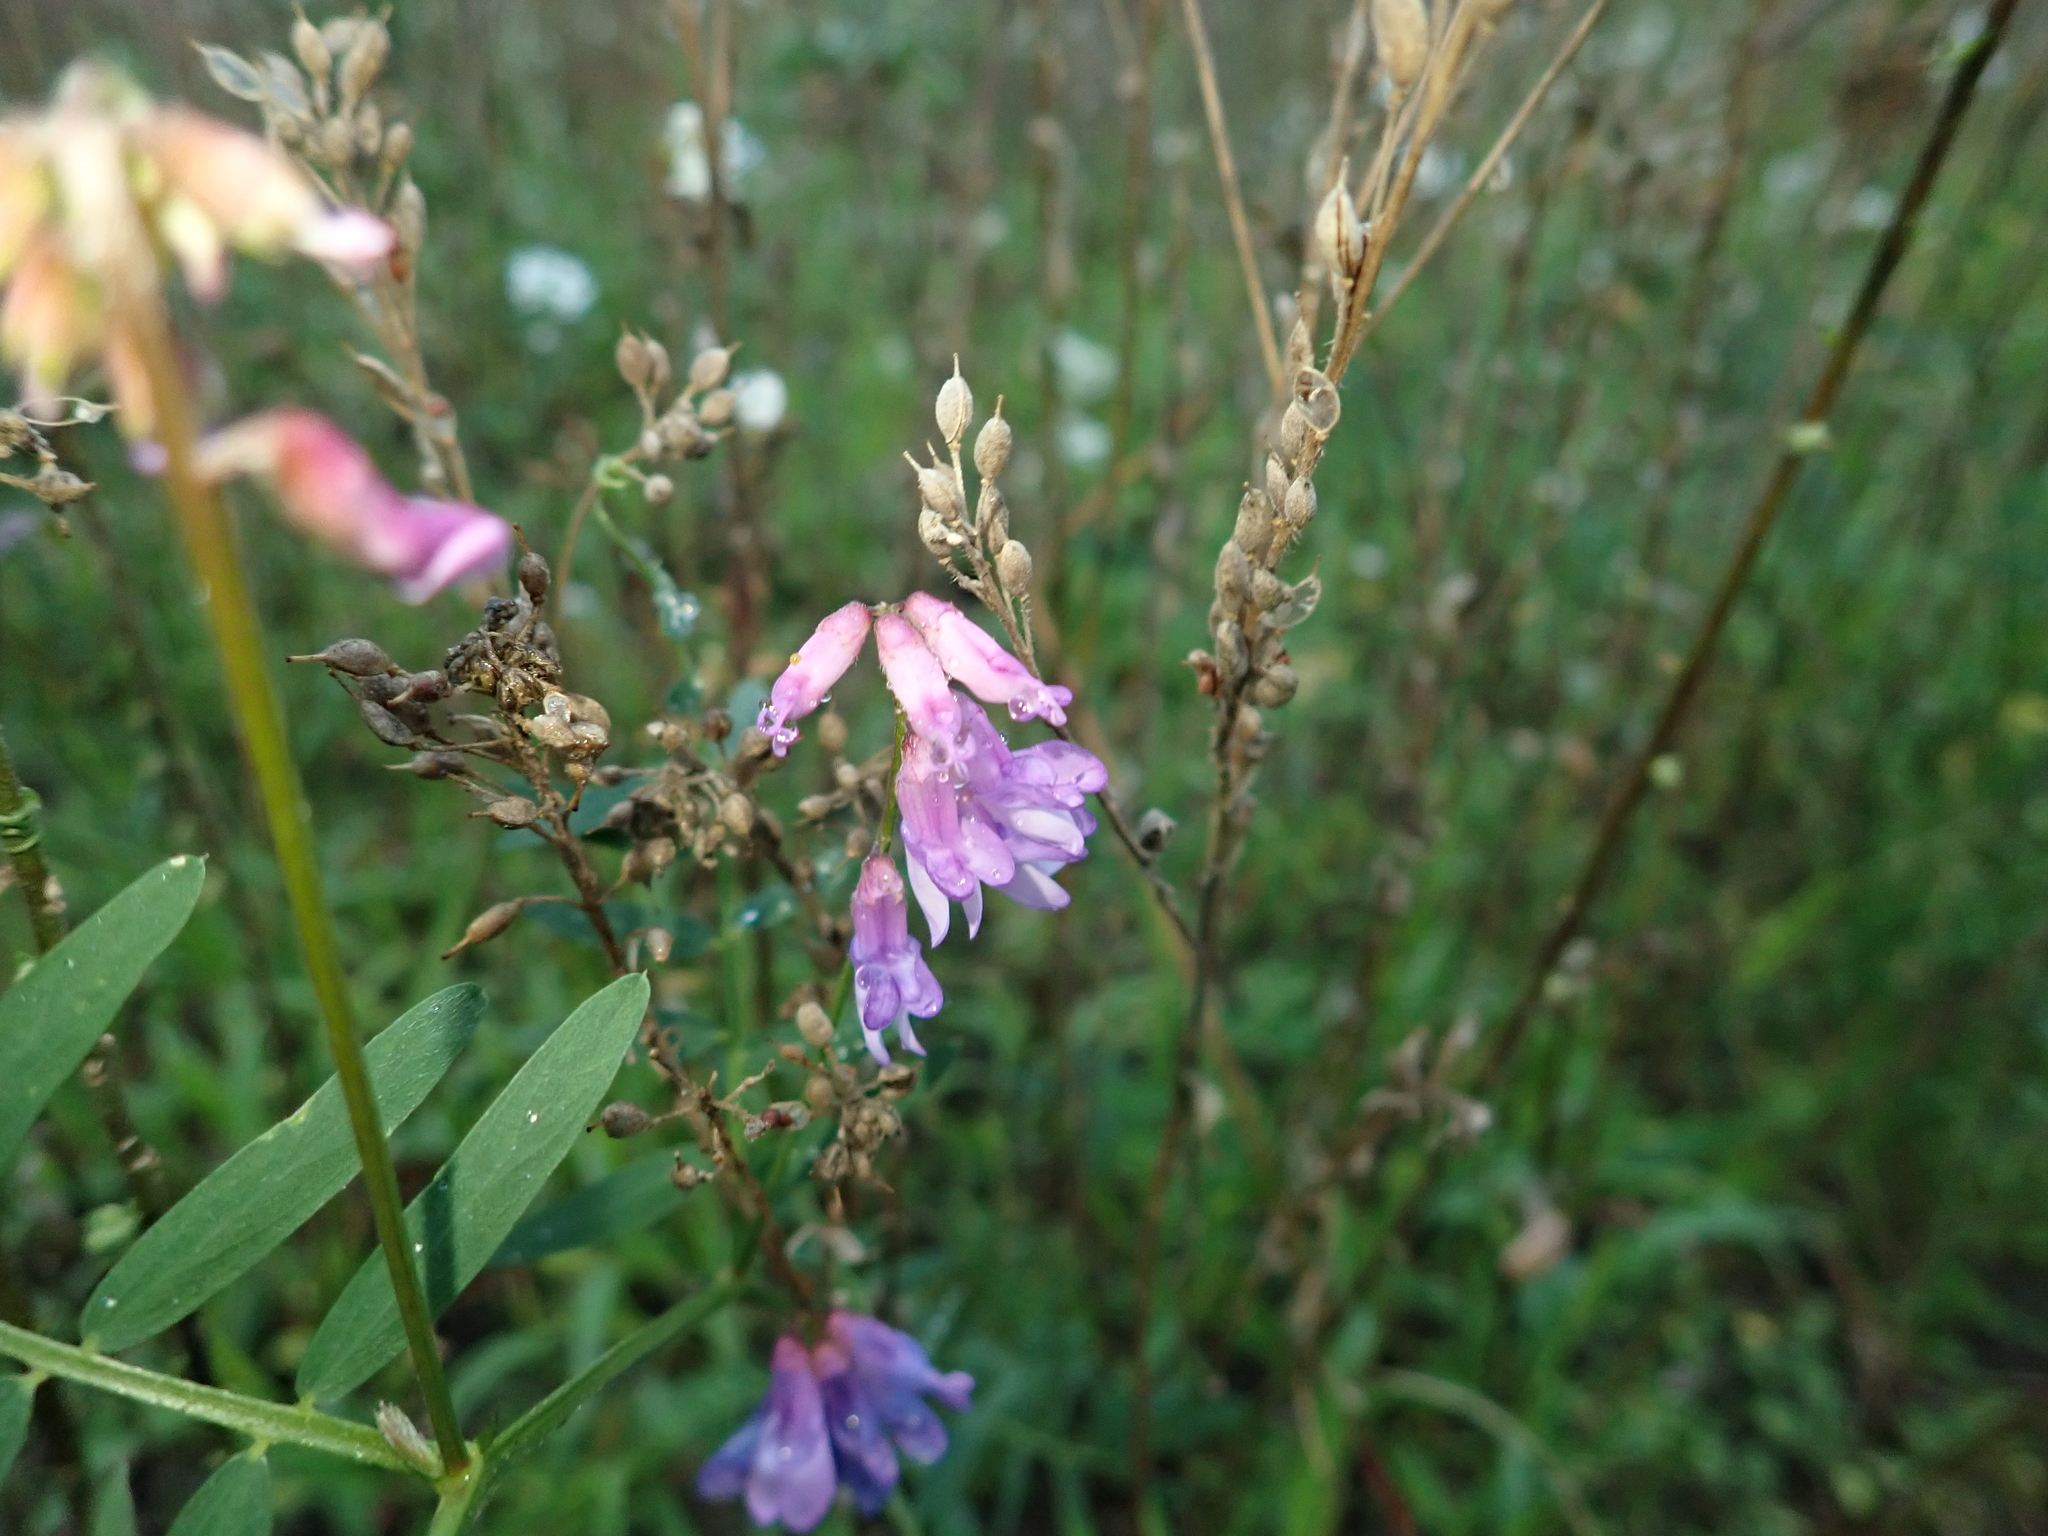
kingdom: Plantae
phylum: Tracheophyta
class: Magnoliopsida
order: Fabales
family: Fabaceae
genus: Vicia
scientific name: Vicia cracca
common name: Bird vetch
